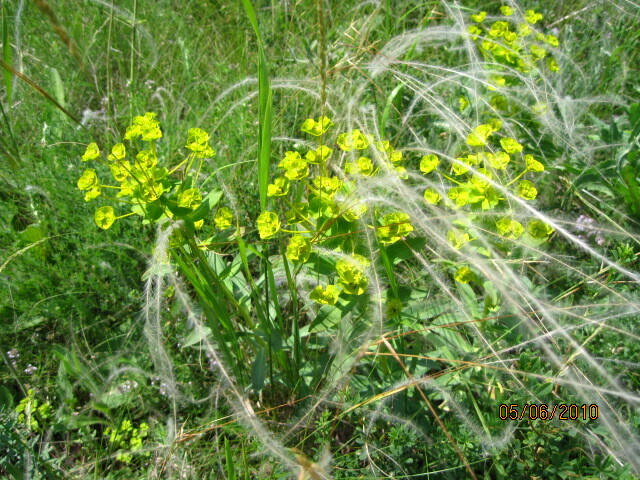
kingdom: Plantae
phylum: Tracheophyta
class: Magnoliopsida
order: Malpighiales
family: Euphorbiaceae
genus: Euphorbia
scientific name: Euphorbia stepposa
